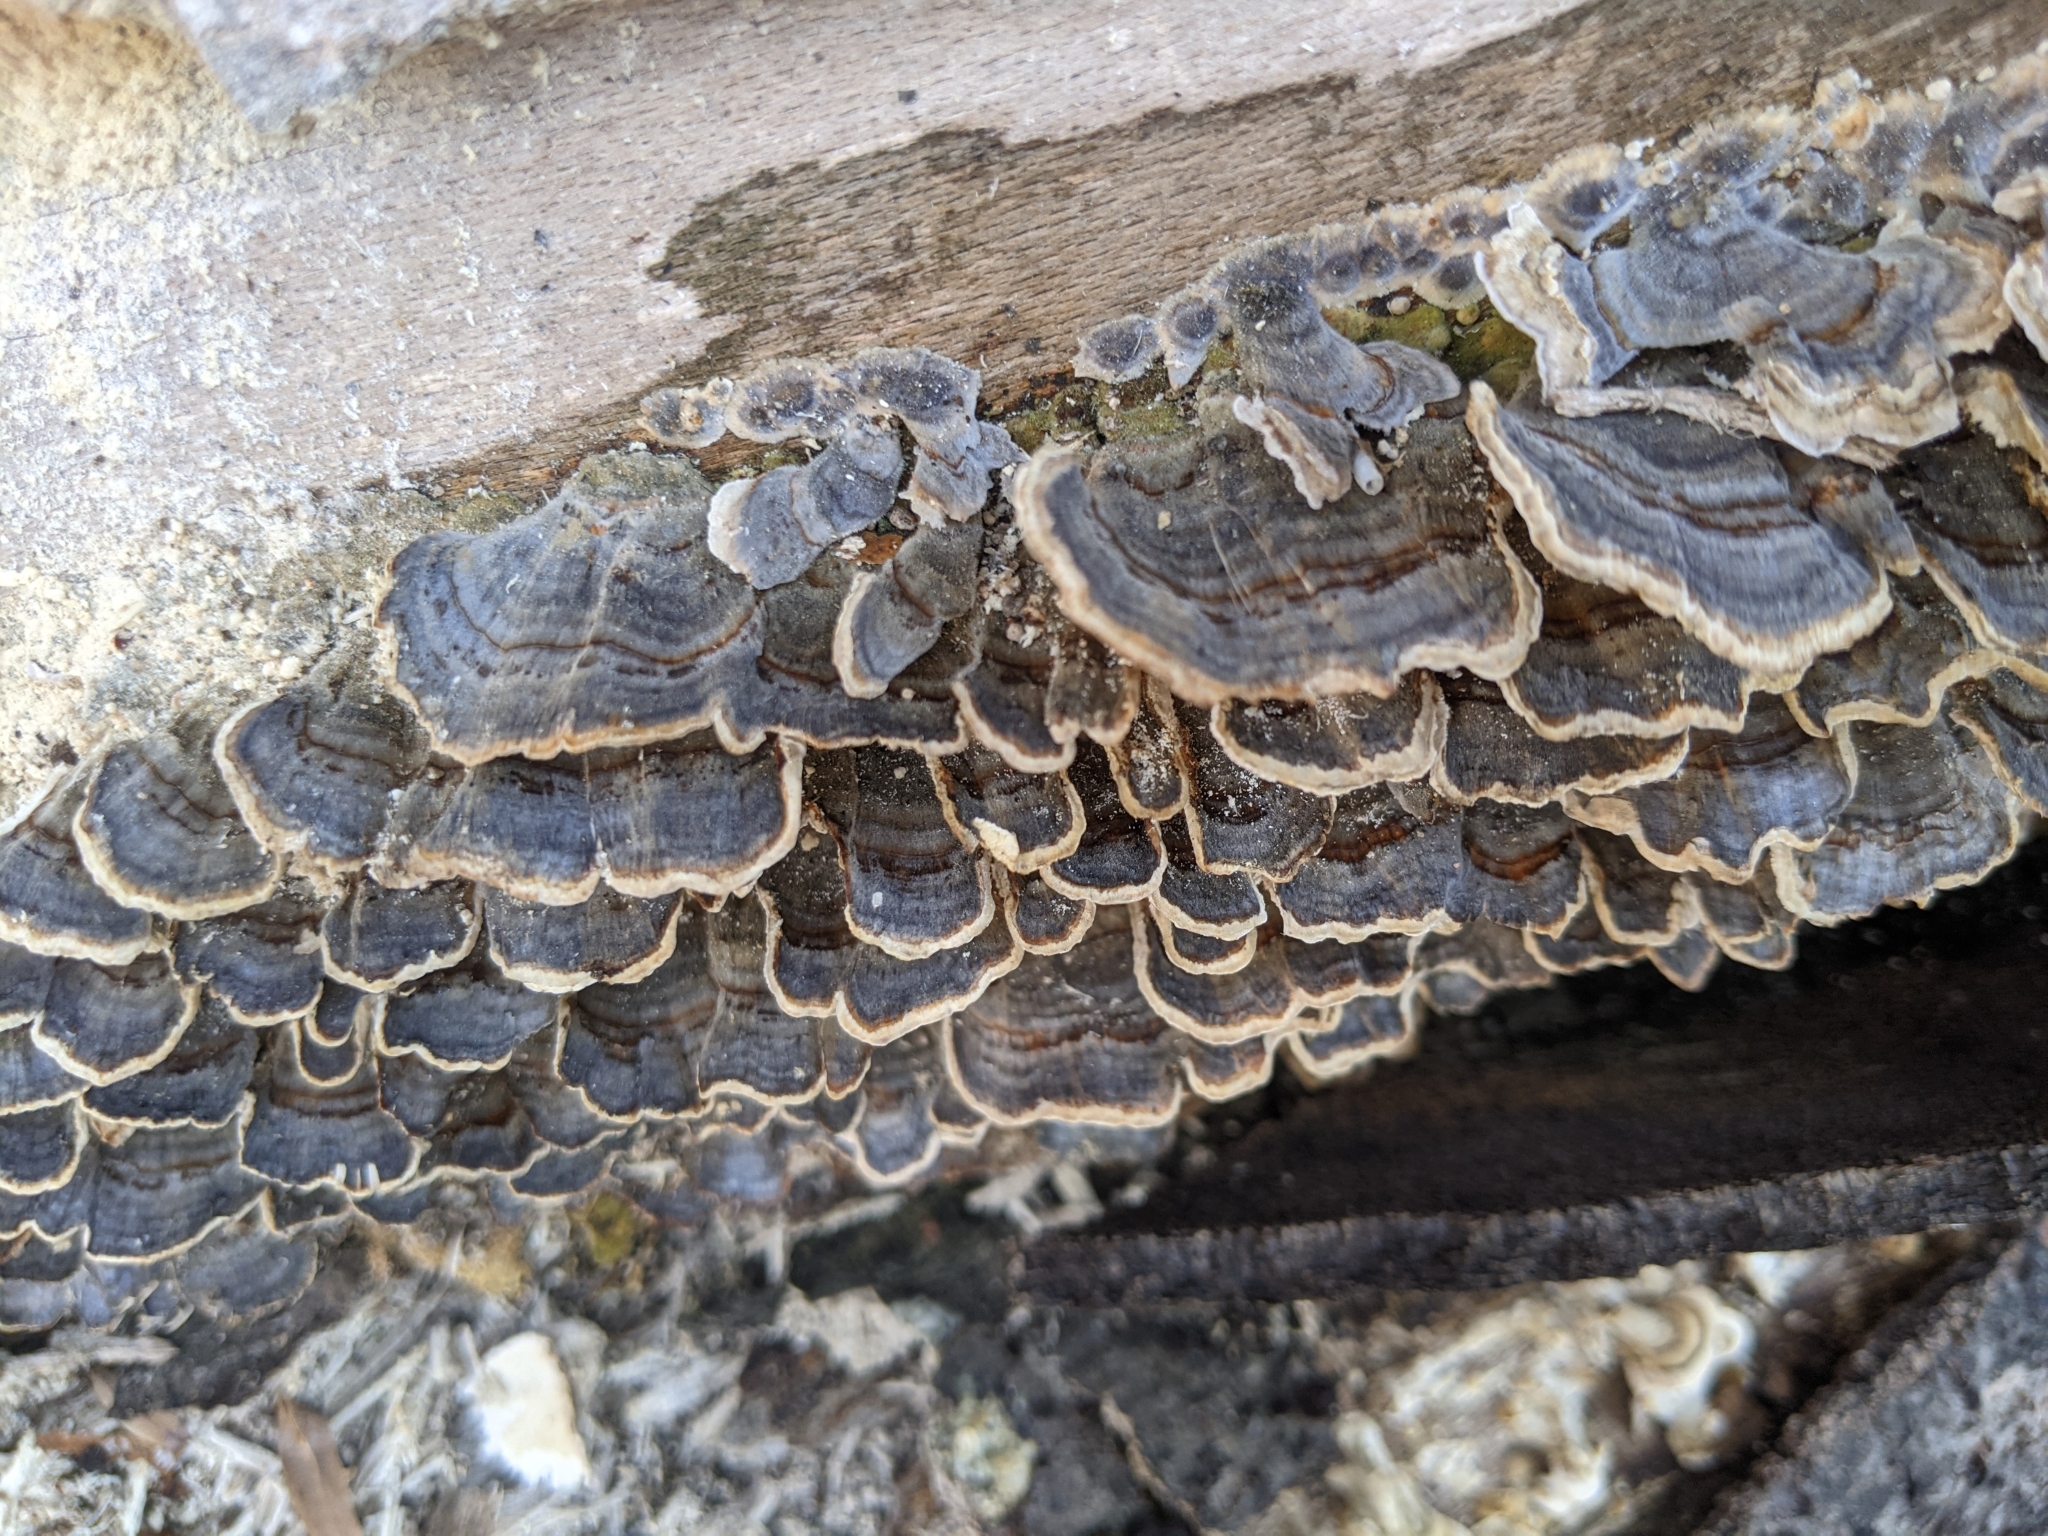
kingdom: Fungi
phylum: Basidiomycota
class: Agaricomycetes
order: Polyporales
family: Polyporaceae
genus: Trametes
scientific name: Trametes versicolor
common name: Turkeytail
